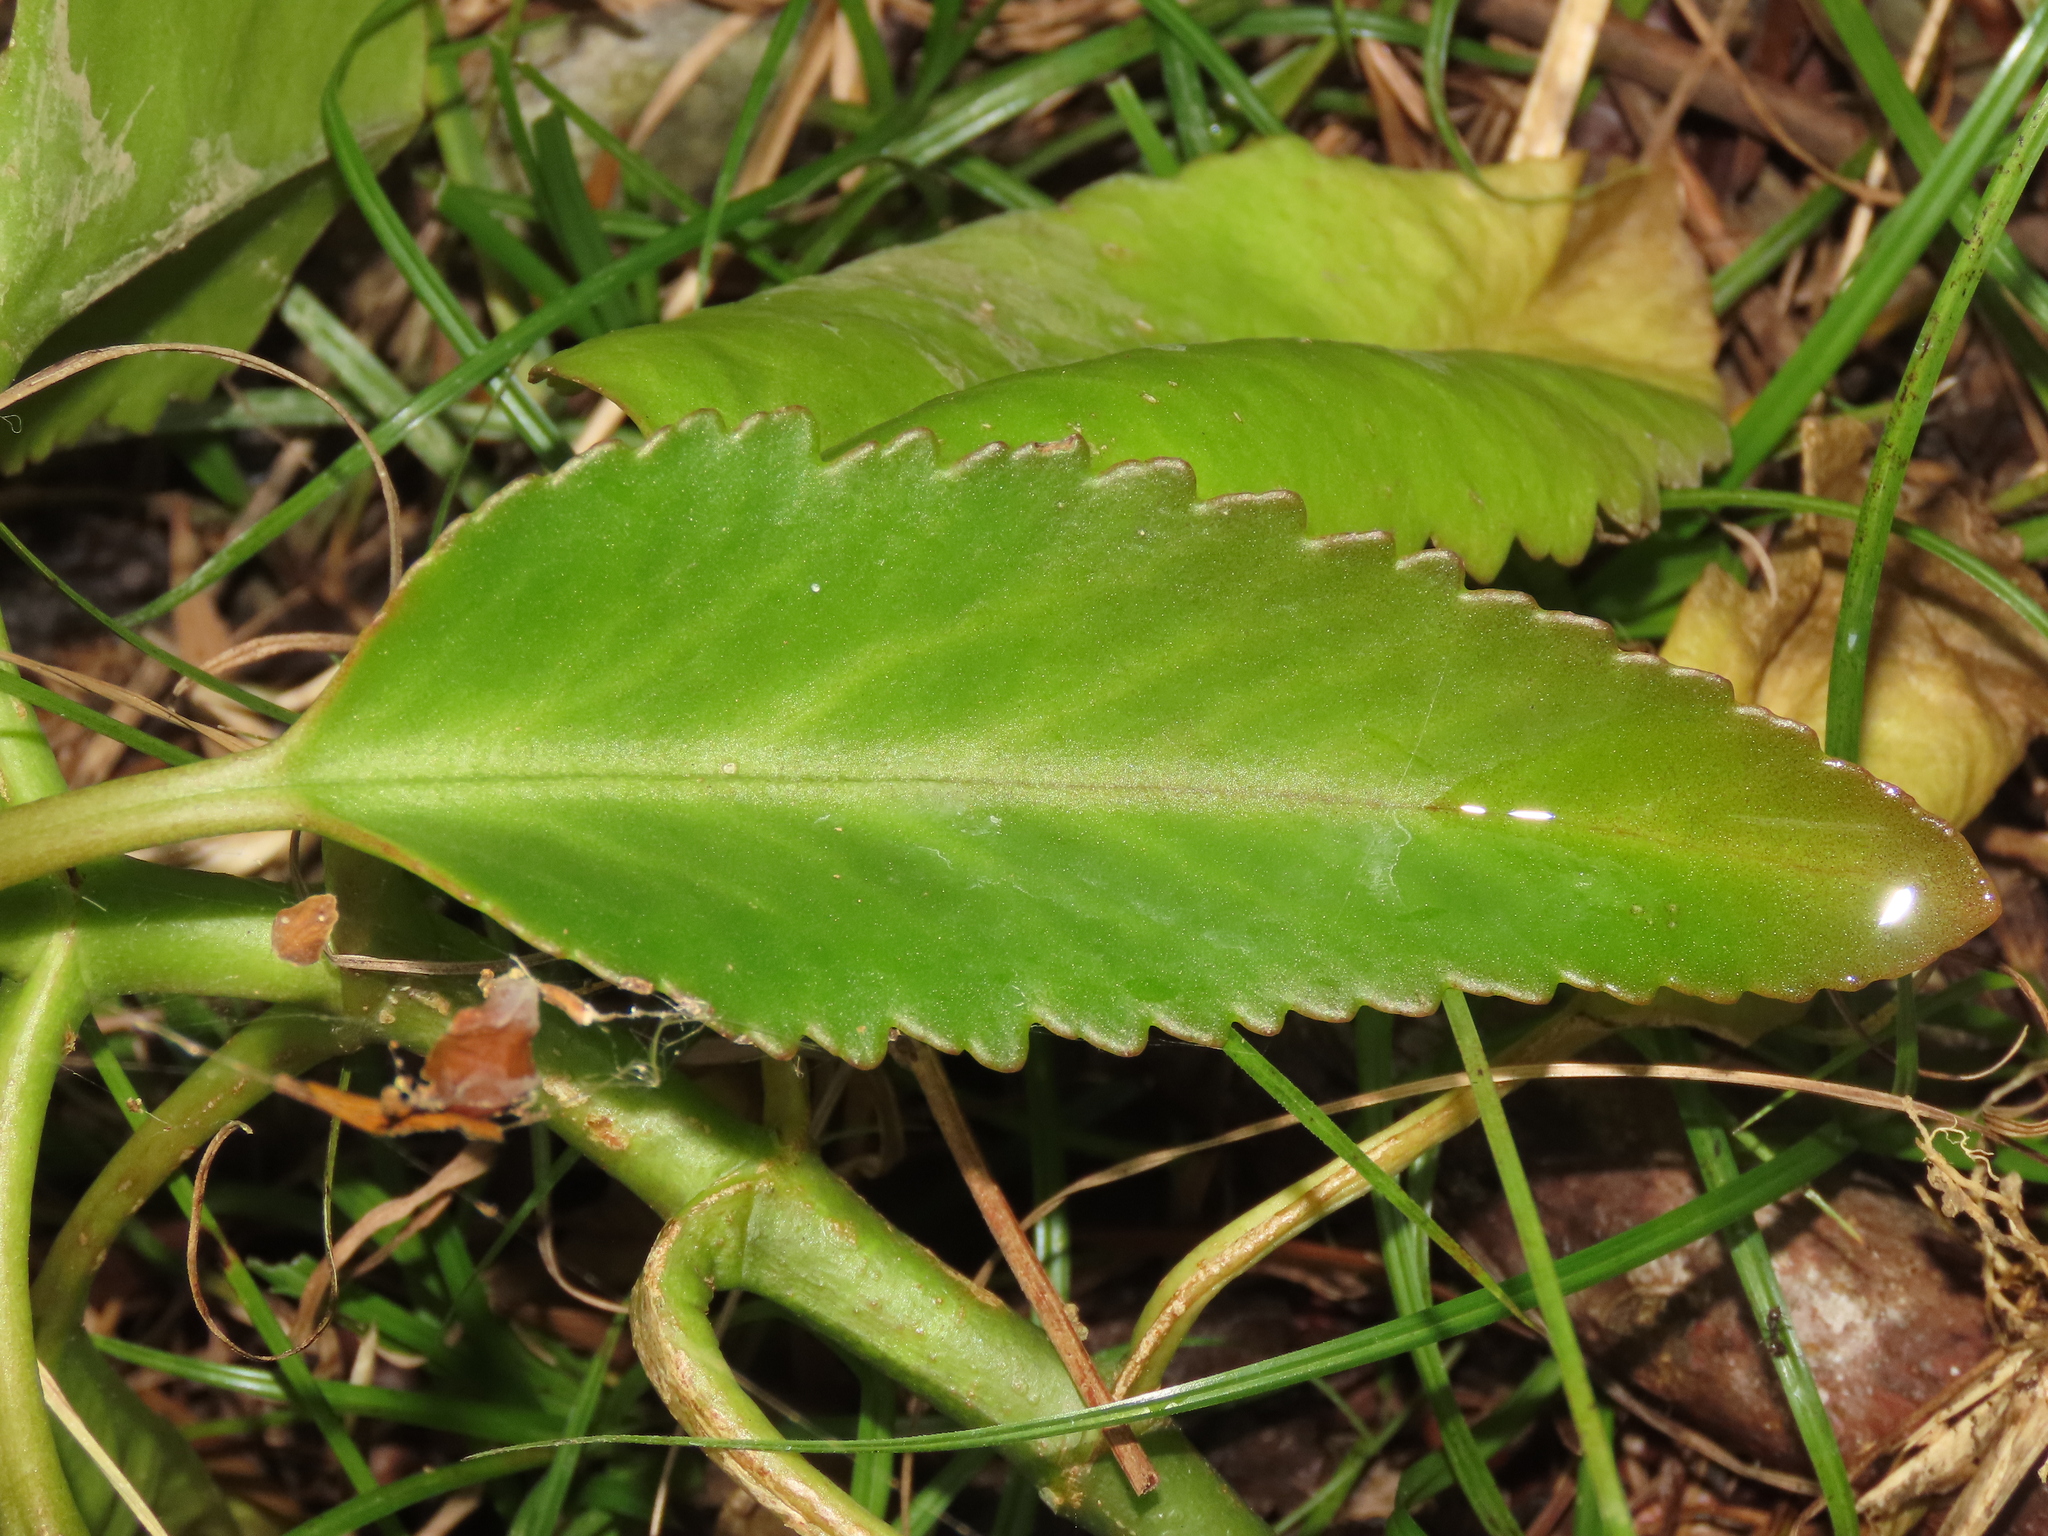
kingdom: Plantae
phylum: Tracheophyta
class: Magnoliopsida
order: Saxifragales
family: Crassulaceae
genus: Kalanchoe
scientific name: Kalanchoe integra
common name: Neverdie
